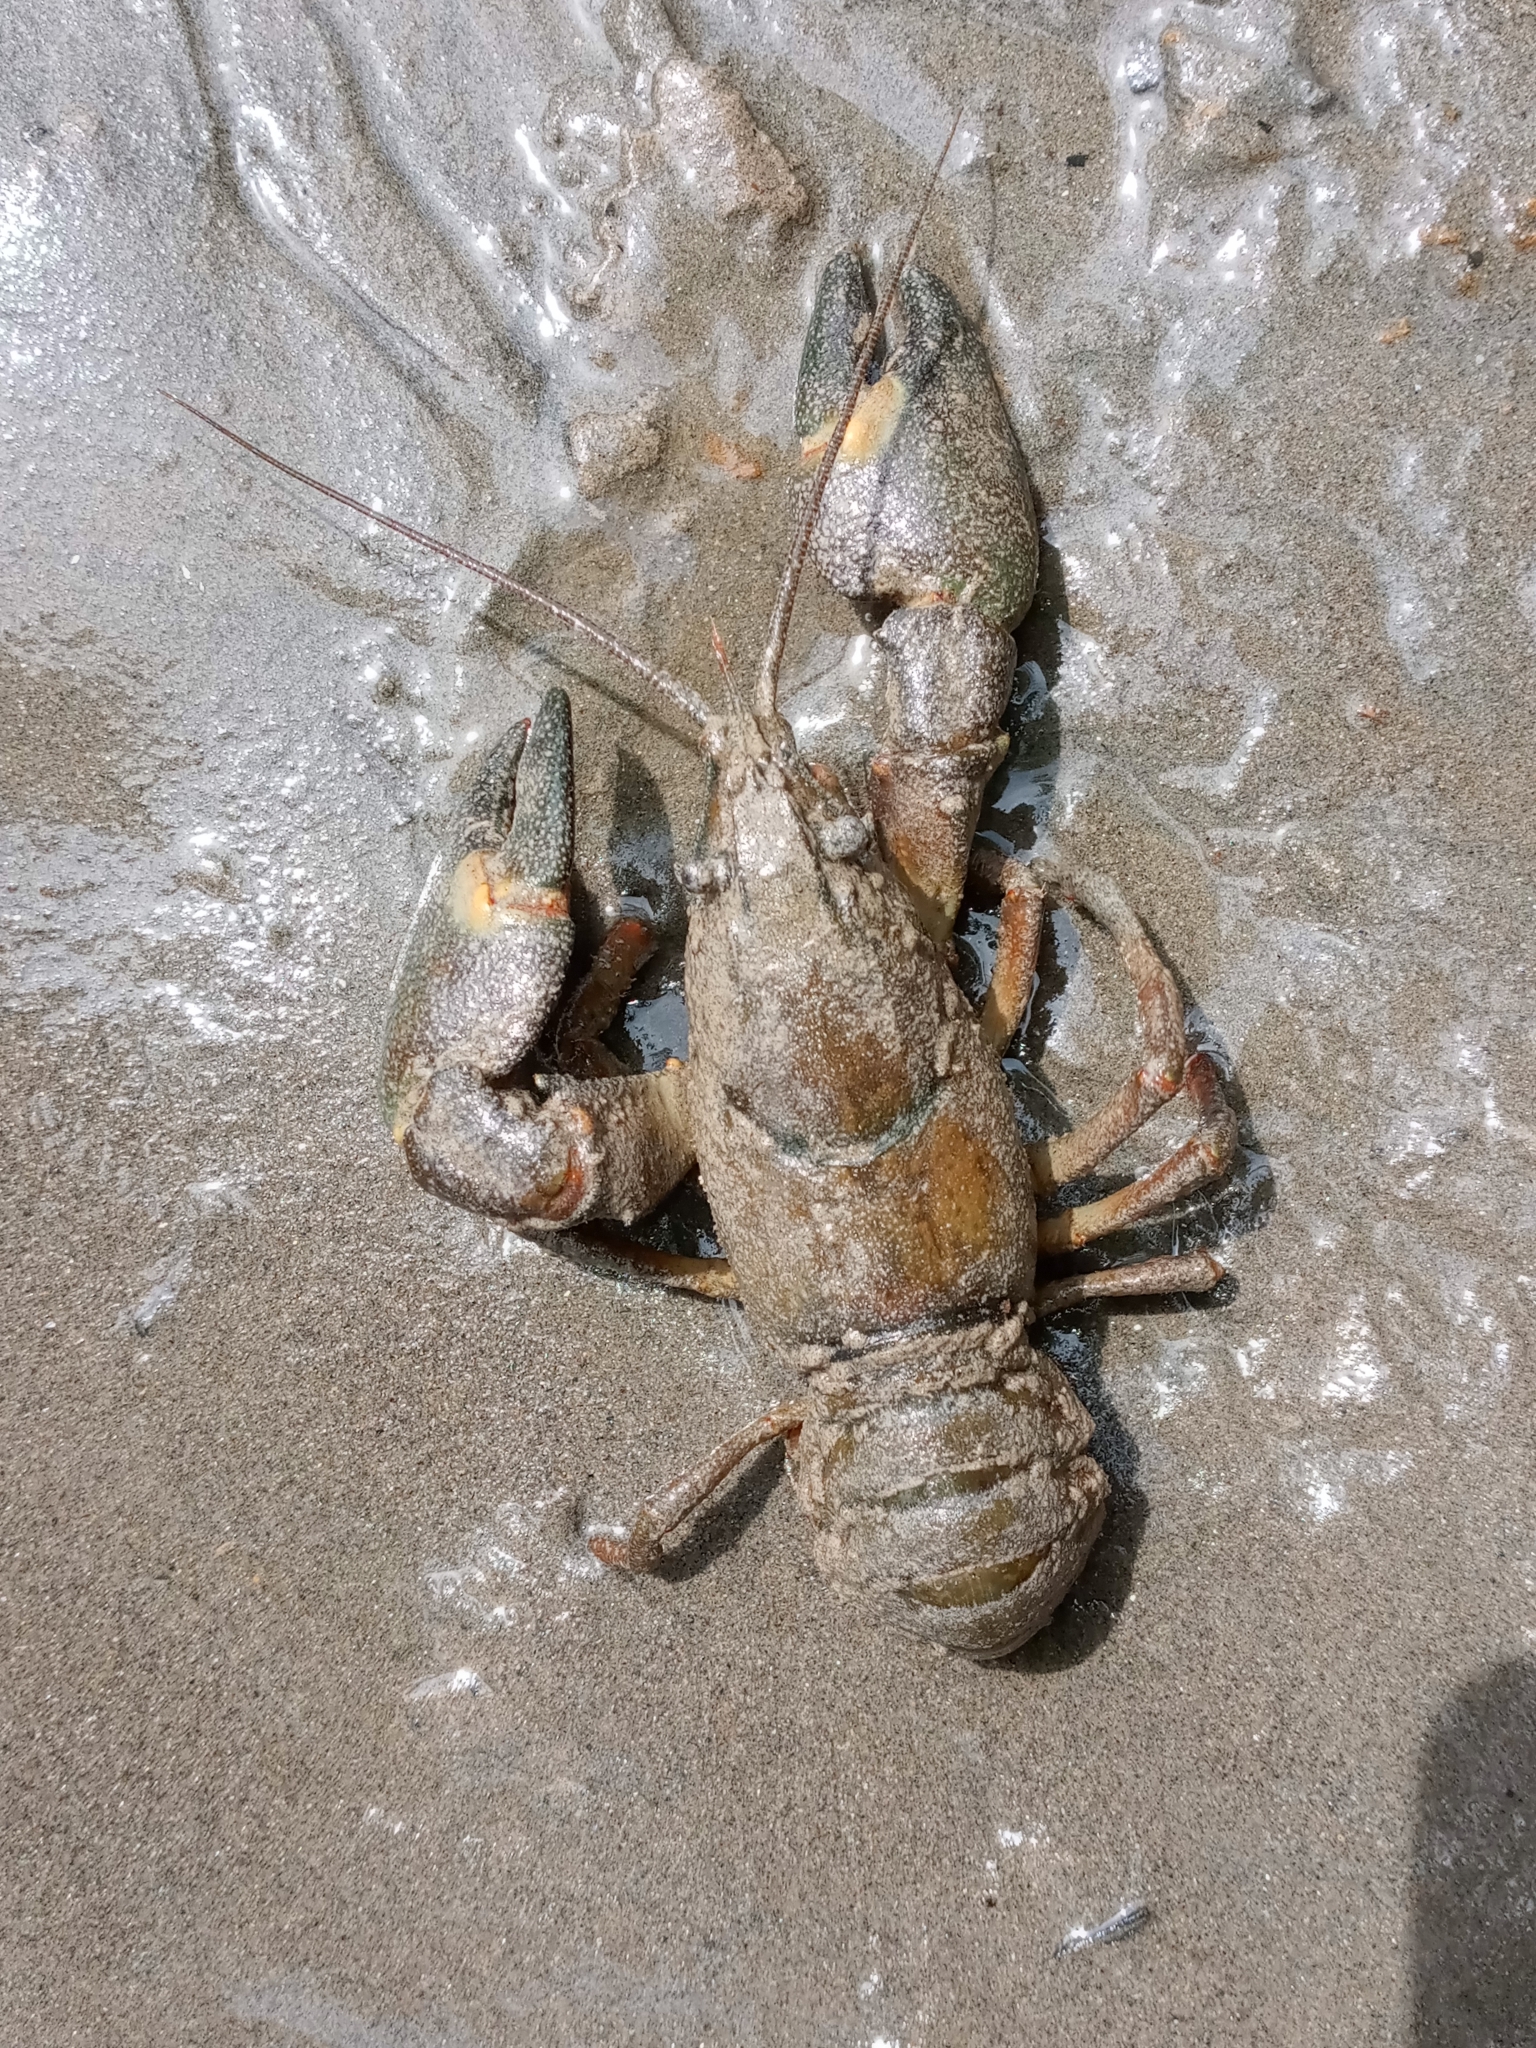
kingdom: Animalia
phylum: Arthropoda
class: Malacostraca
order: Decapoda
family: Astacidae
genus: Pacifastacus
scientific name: Pacifastacus leniusculus
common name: Signal crayfish
